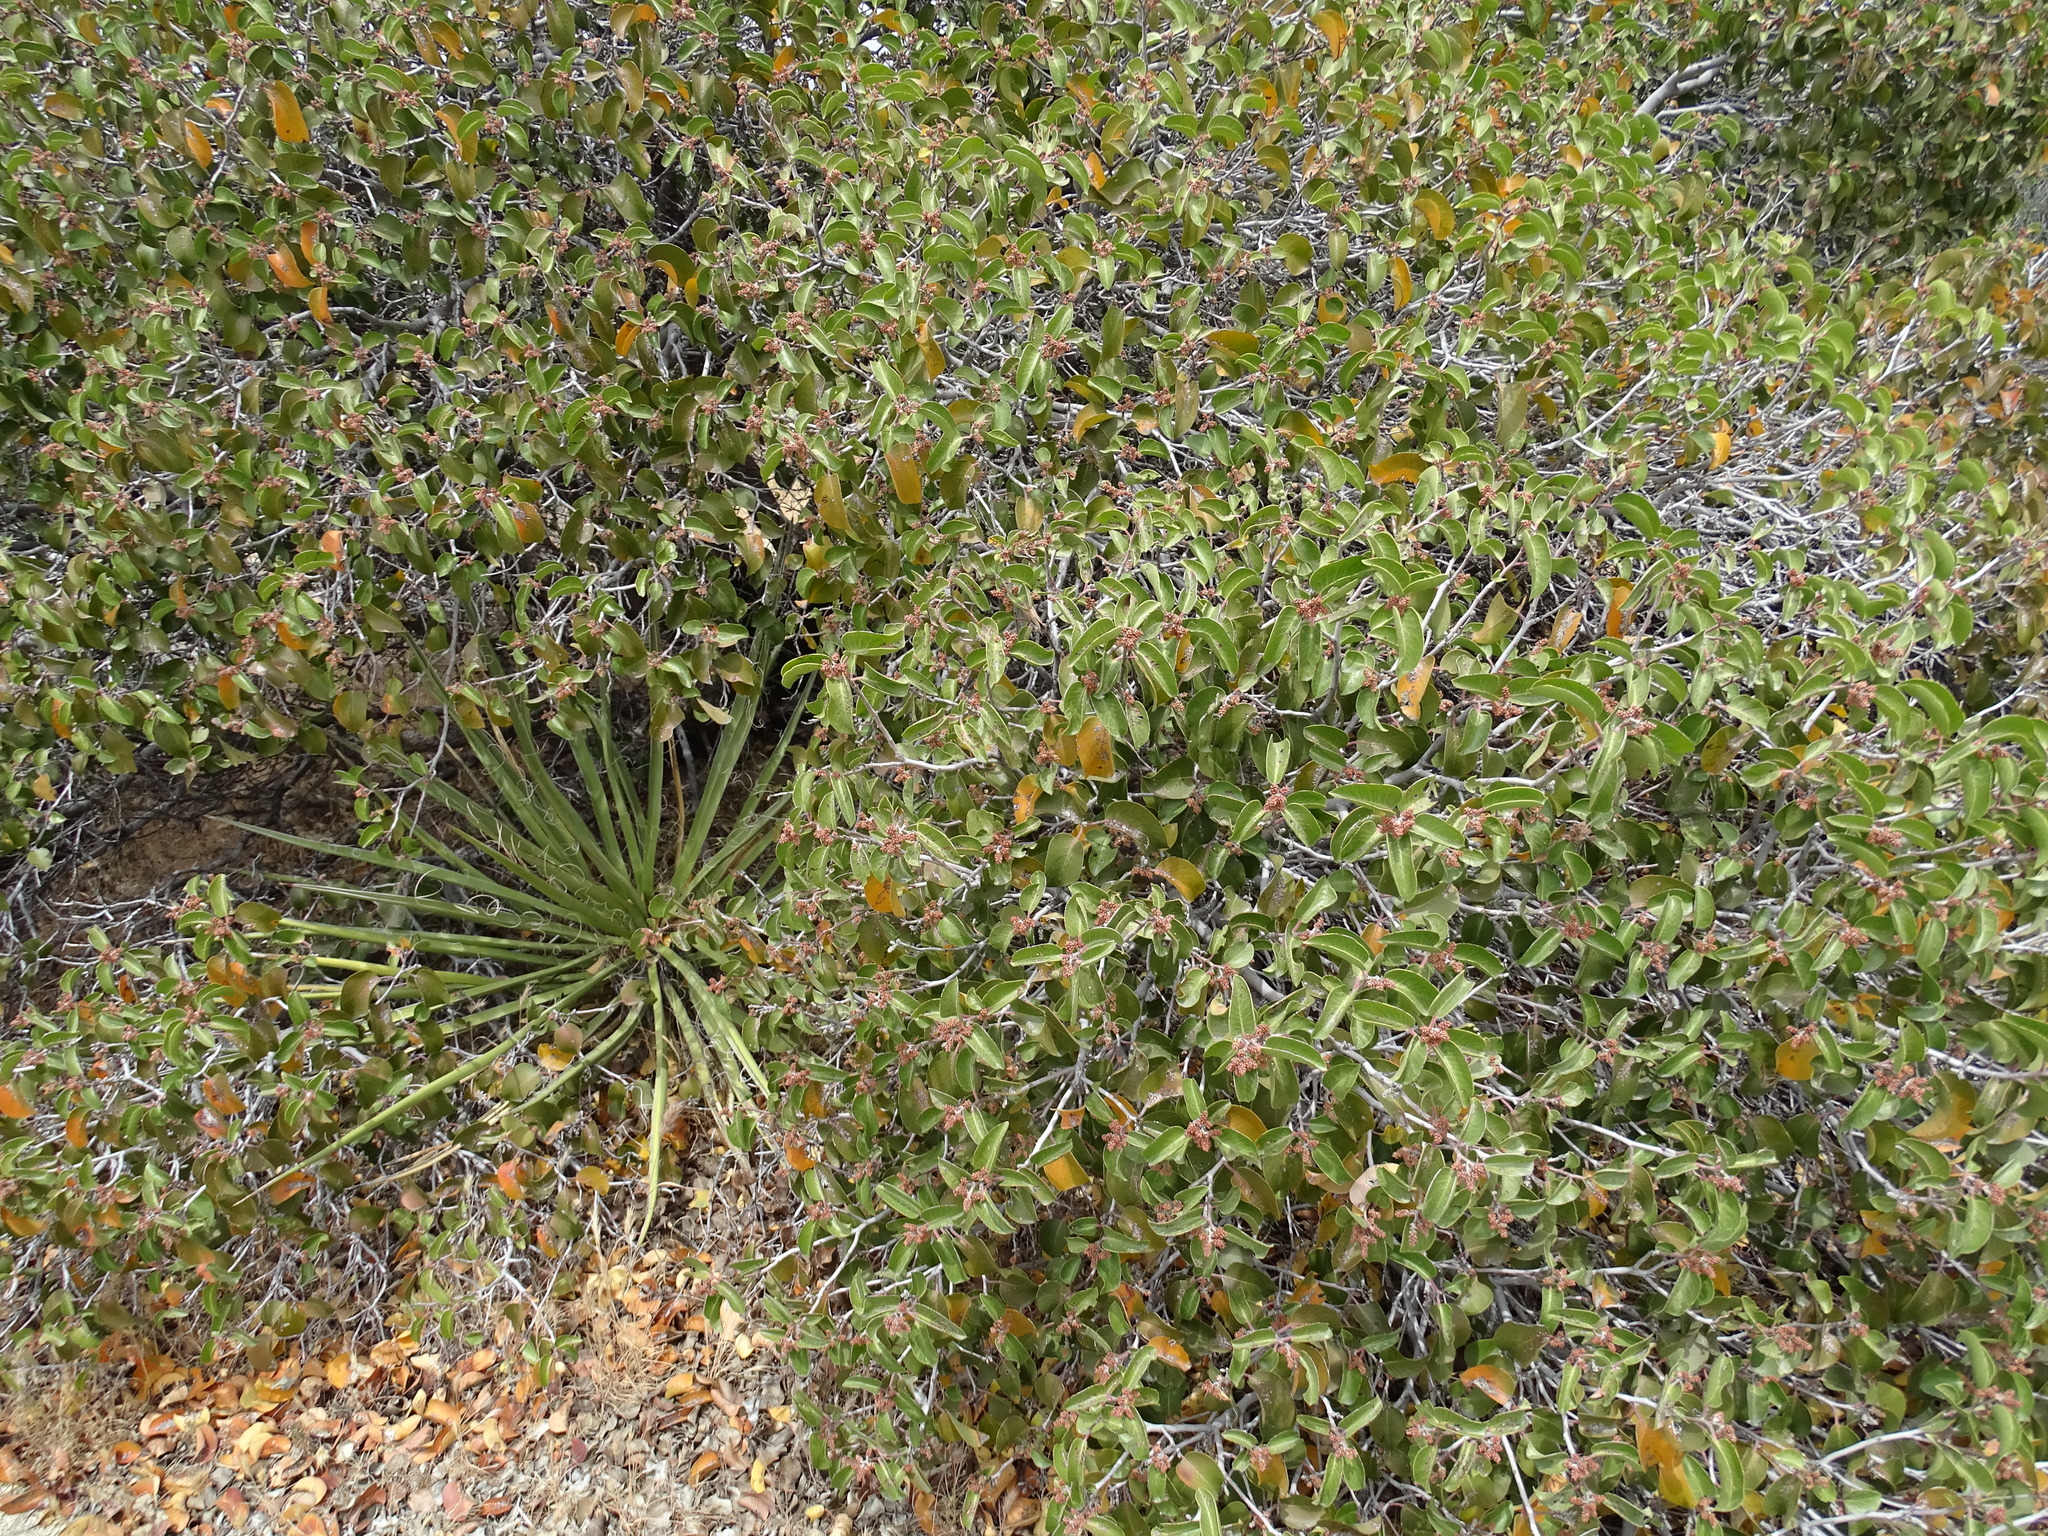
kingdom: Plantae
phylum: Tracheophyta
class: Magnoliopsida
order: Sapindales
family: Anacardiaceae
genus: Rhus
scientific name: Rhus ovata
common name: Sugar sumac
